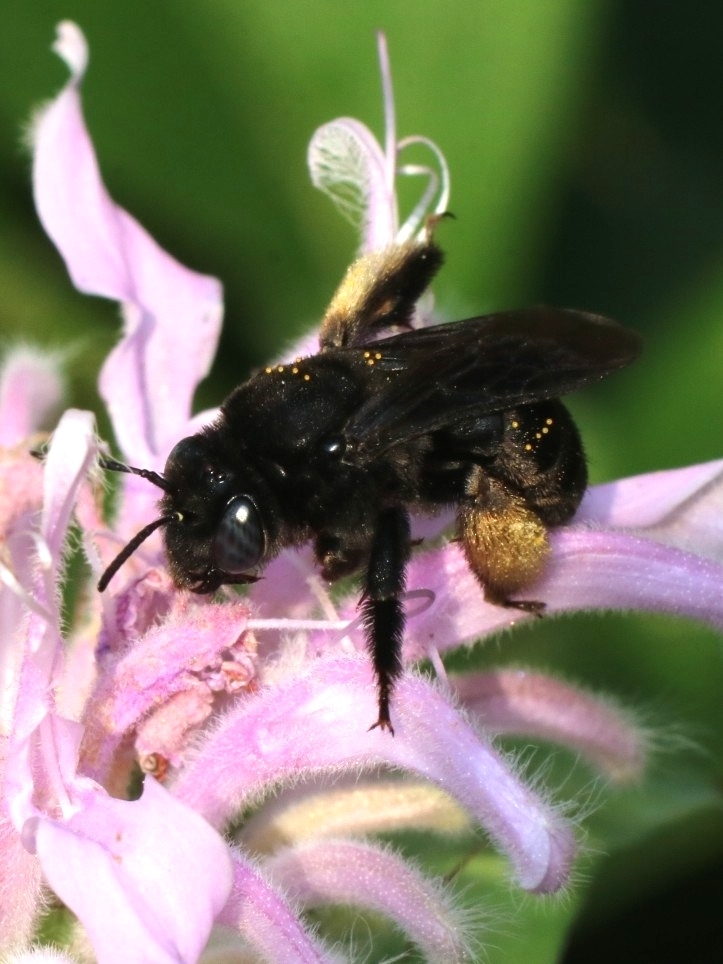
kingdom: Animalia
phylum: Arthropoda
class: Insecta
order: Hymenoptera
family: Apidae
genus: Melissodes
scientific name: Melissodes bimaculatus
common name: Two-spotted long-horned bee
